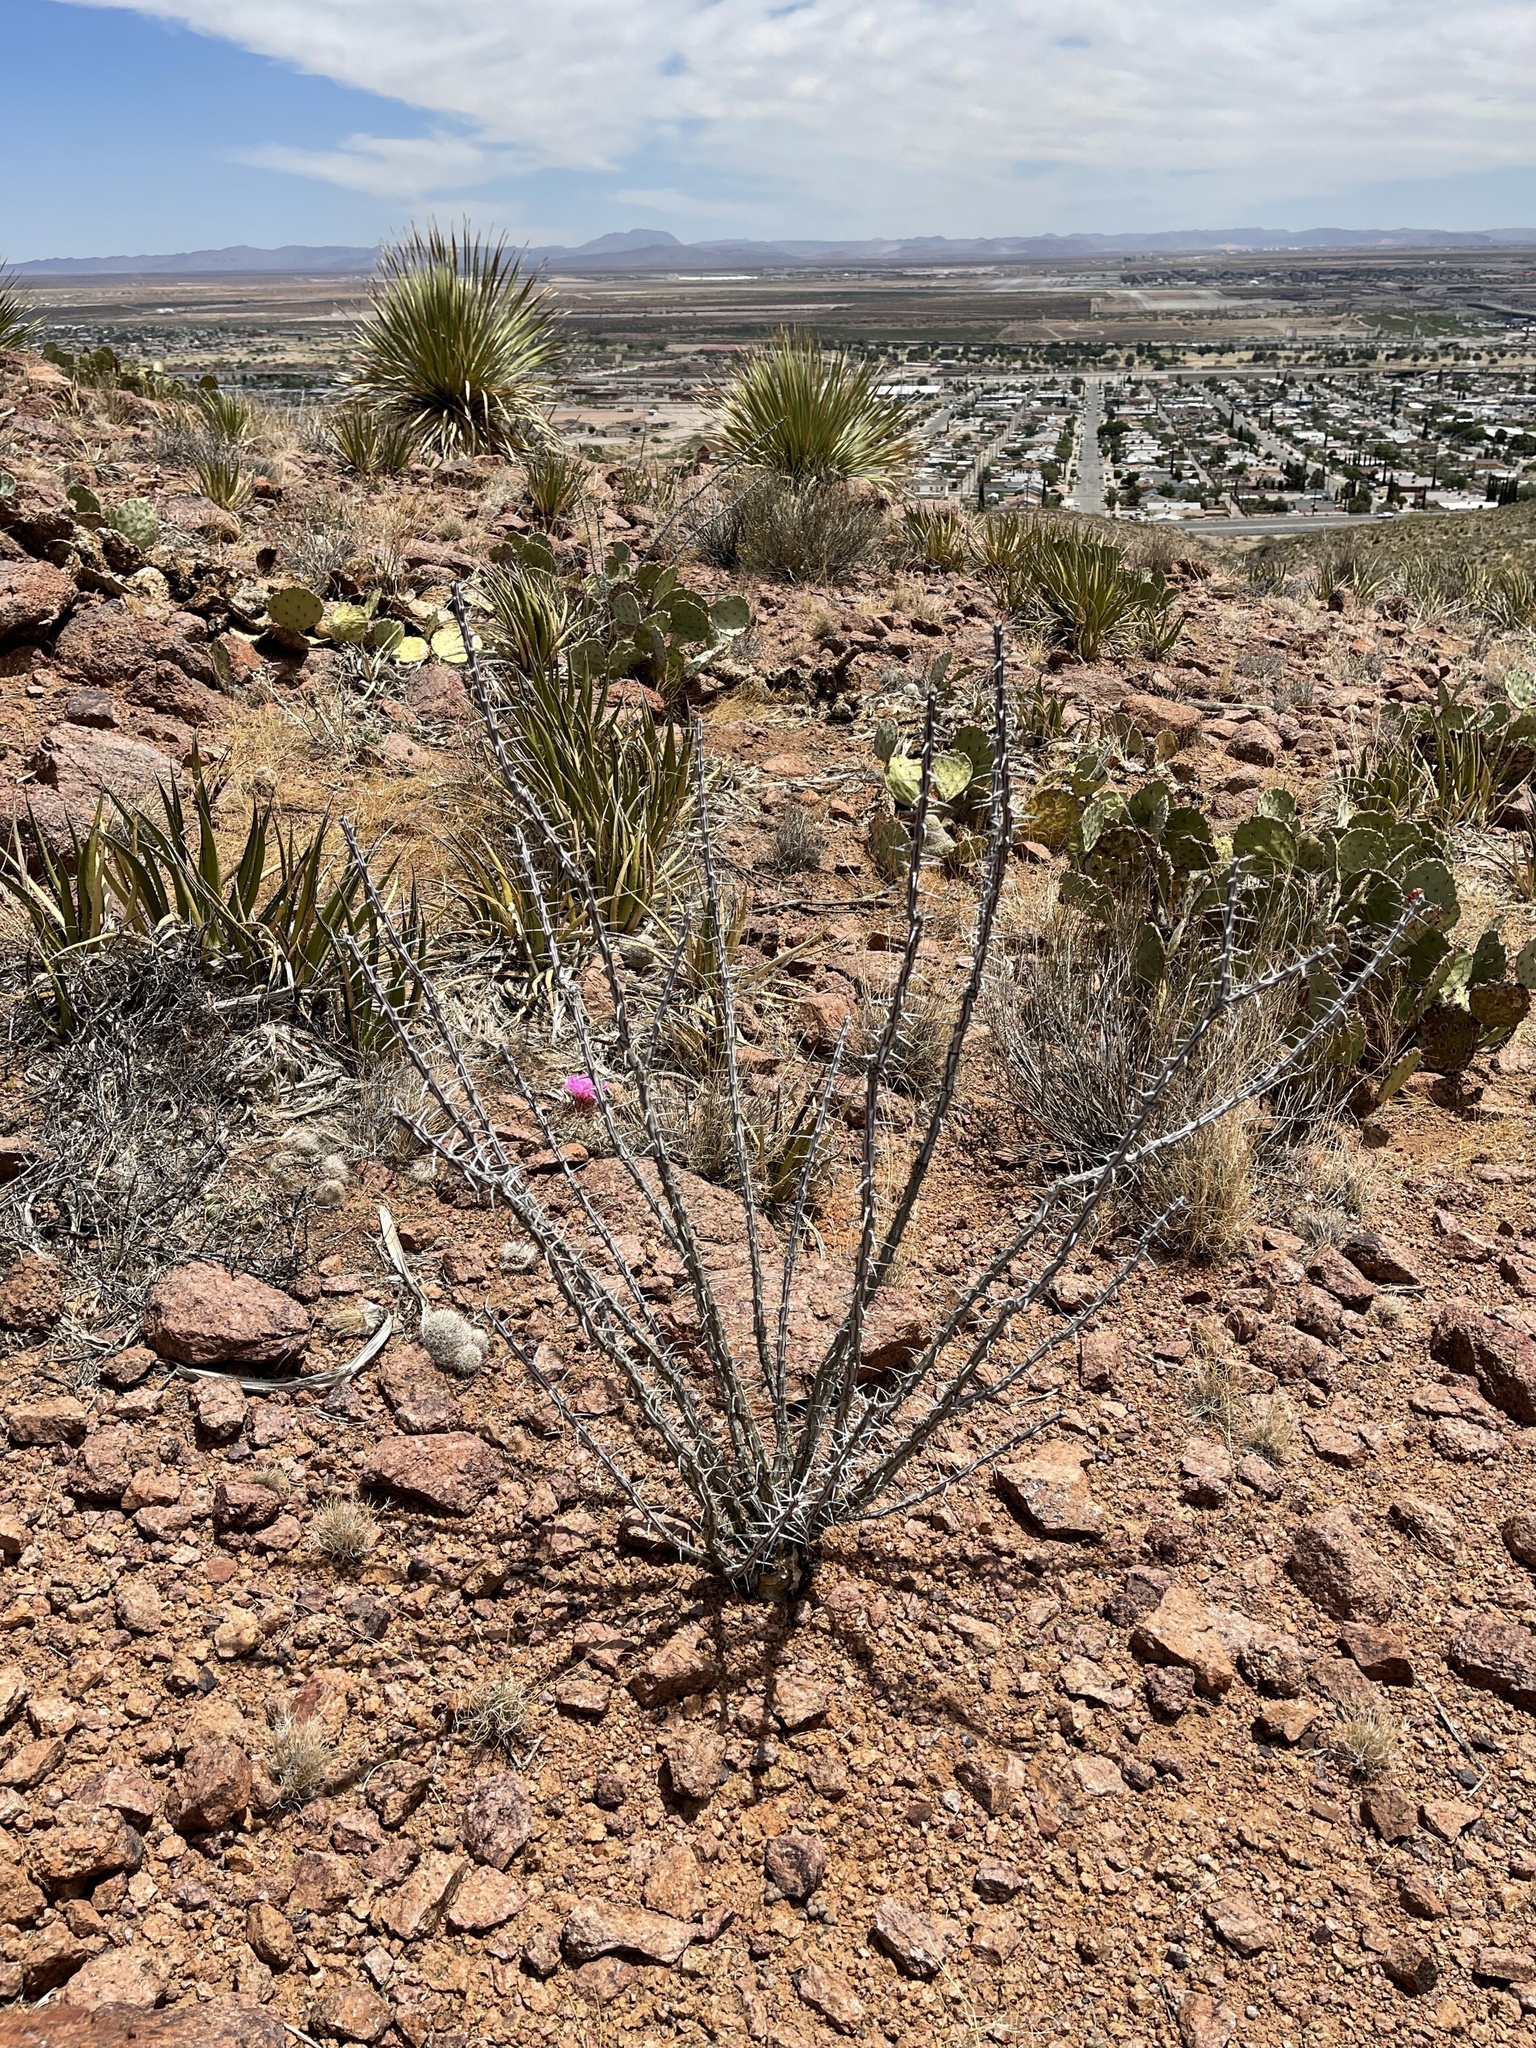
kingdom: Plantae
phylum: Tracheophyta
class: Magnoliopsida
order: Ericales
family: Fouquieriaceae
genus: Fouquieria
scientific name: Fouquieria splendens
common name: Vine-cactus
